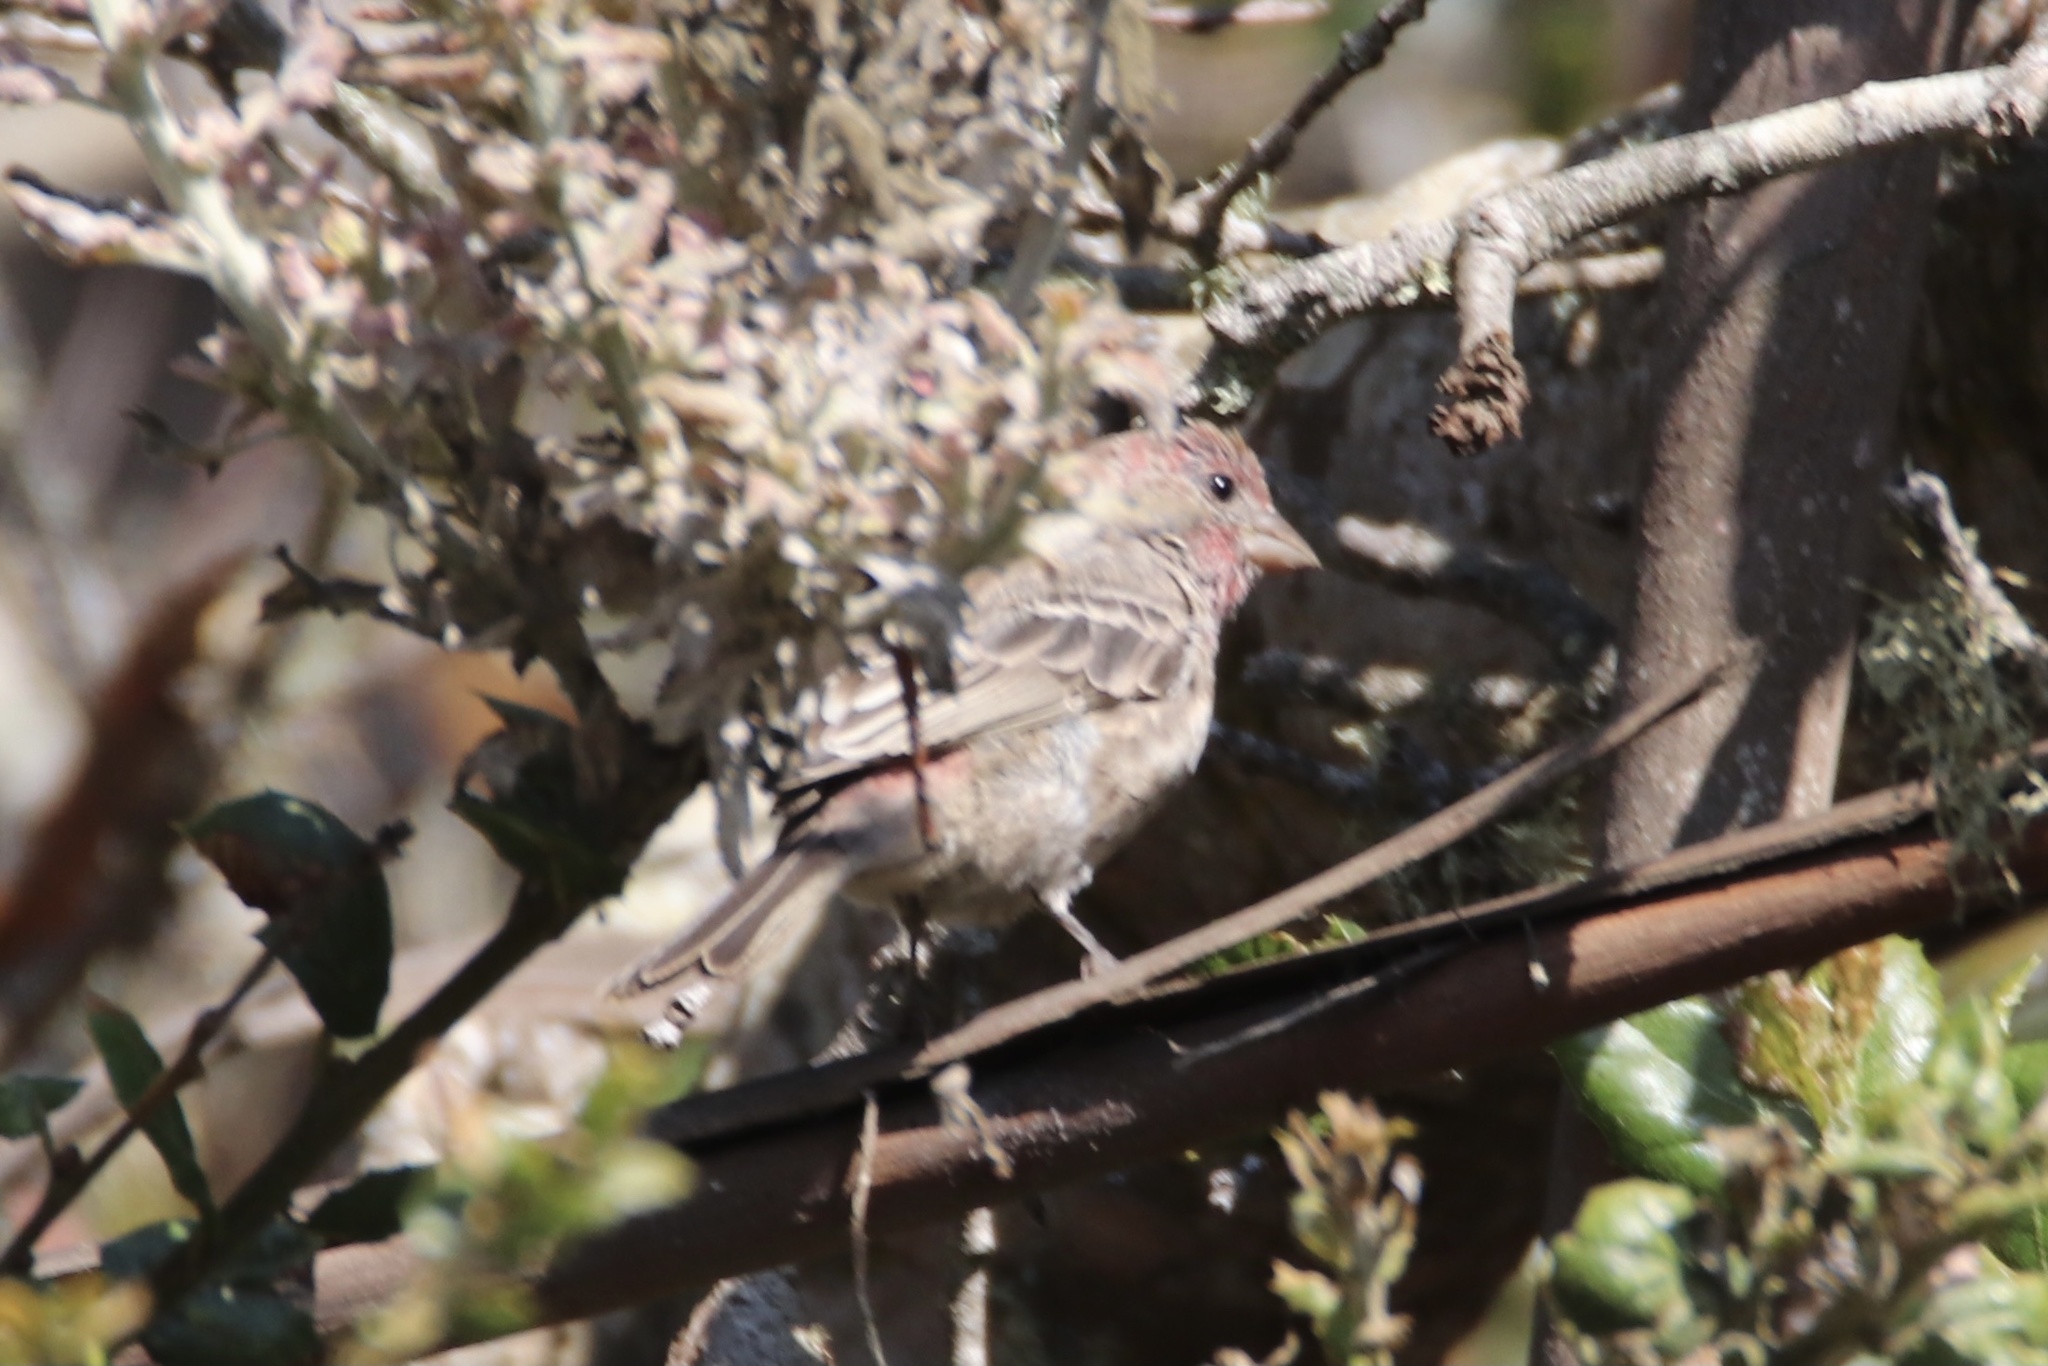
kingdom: Animalia
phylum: Chordata
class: Aves
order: Passeriformes
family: Fringillidae
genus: Haemorhous
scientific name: Haemorhous mexicanus
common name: House finch
